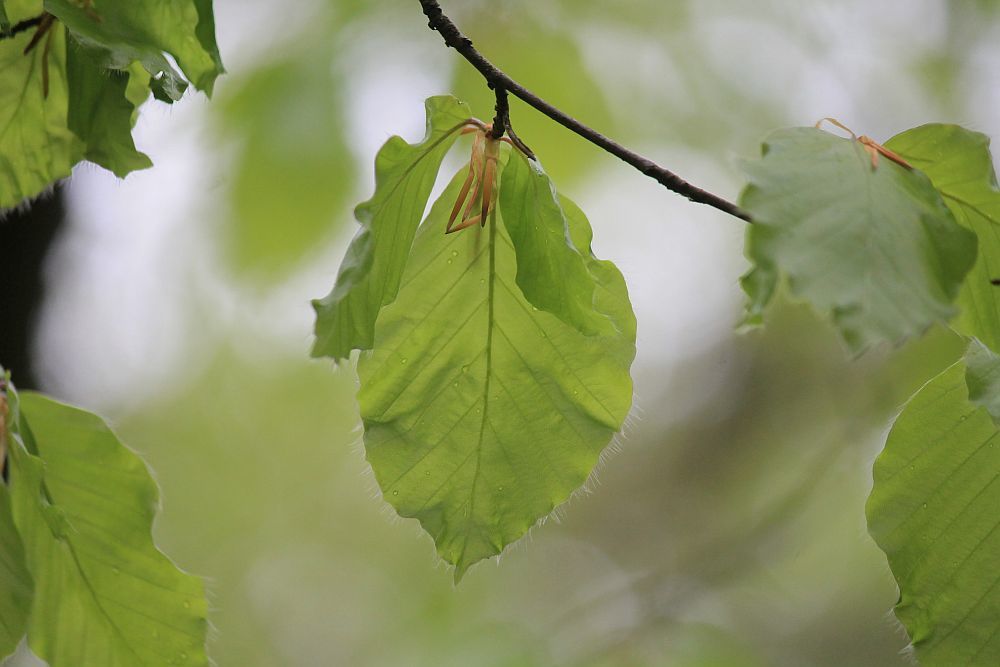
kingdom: Plantae
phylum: Tracheophyta
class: Magnoliopsida
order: Fagales
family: Fagaceae
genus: Fagus
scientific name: Fagus sylvatica
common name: Beech
